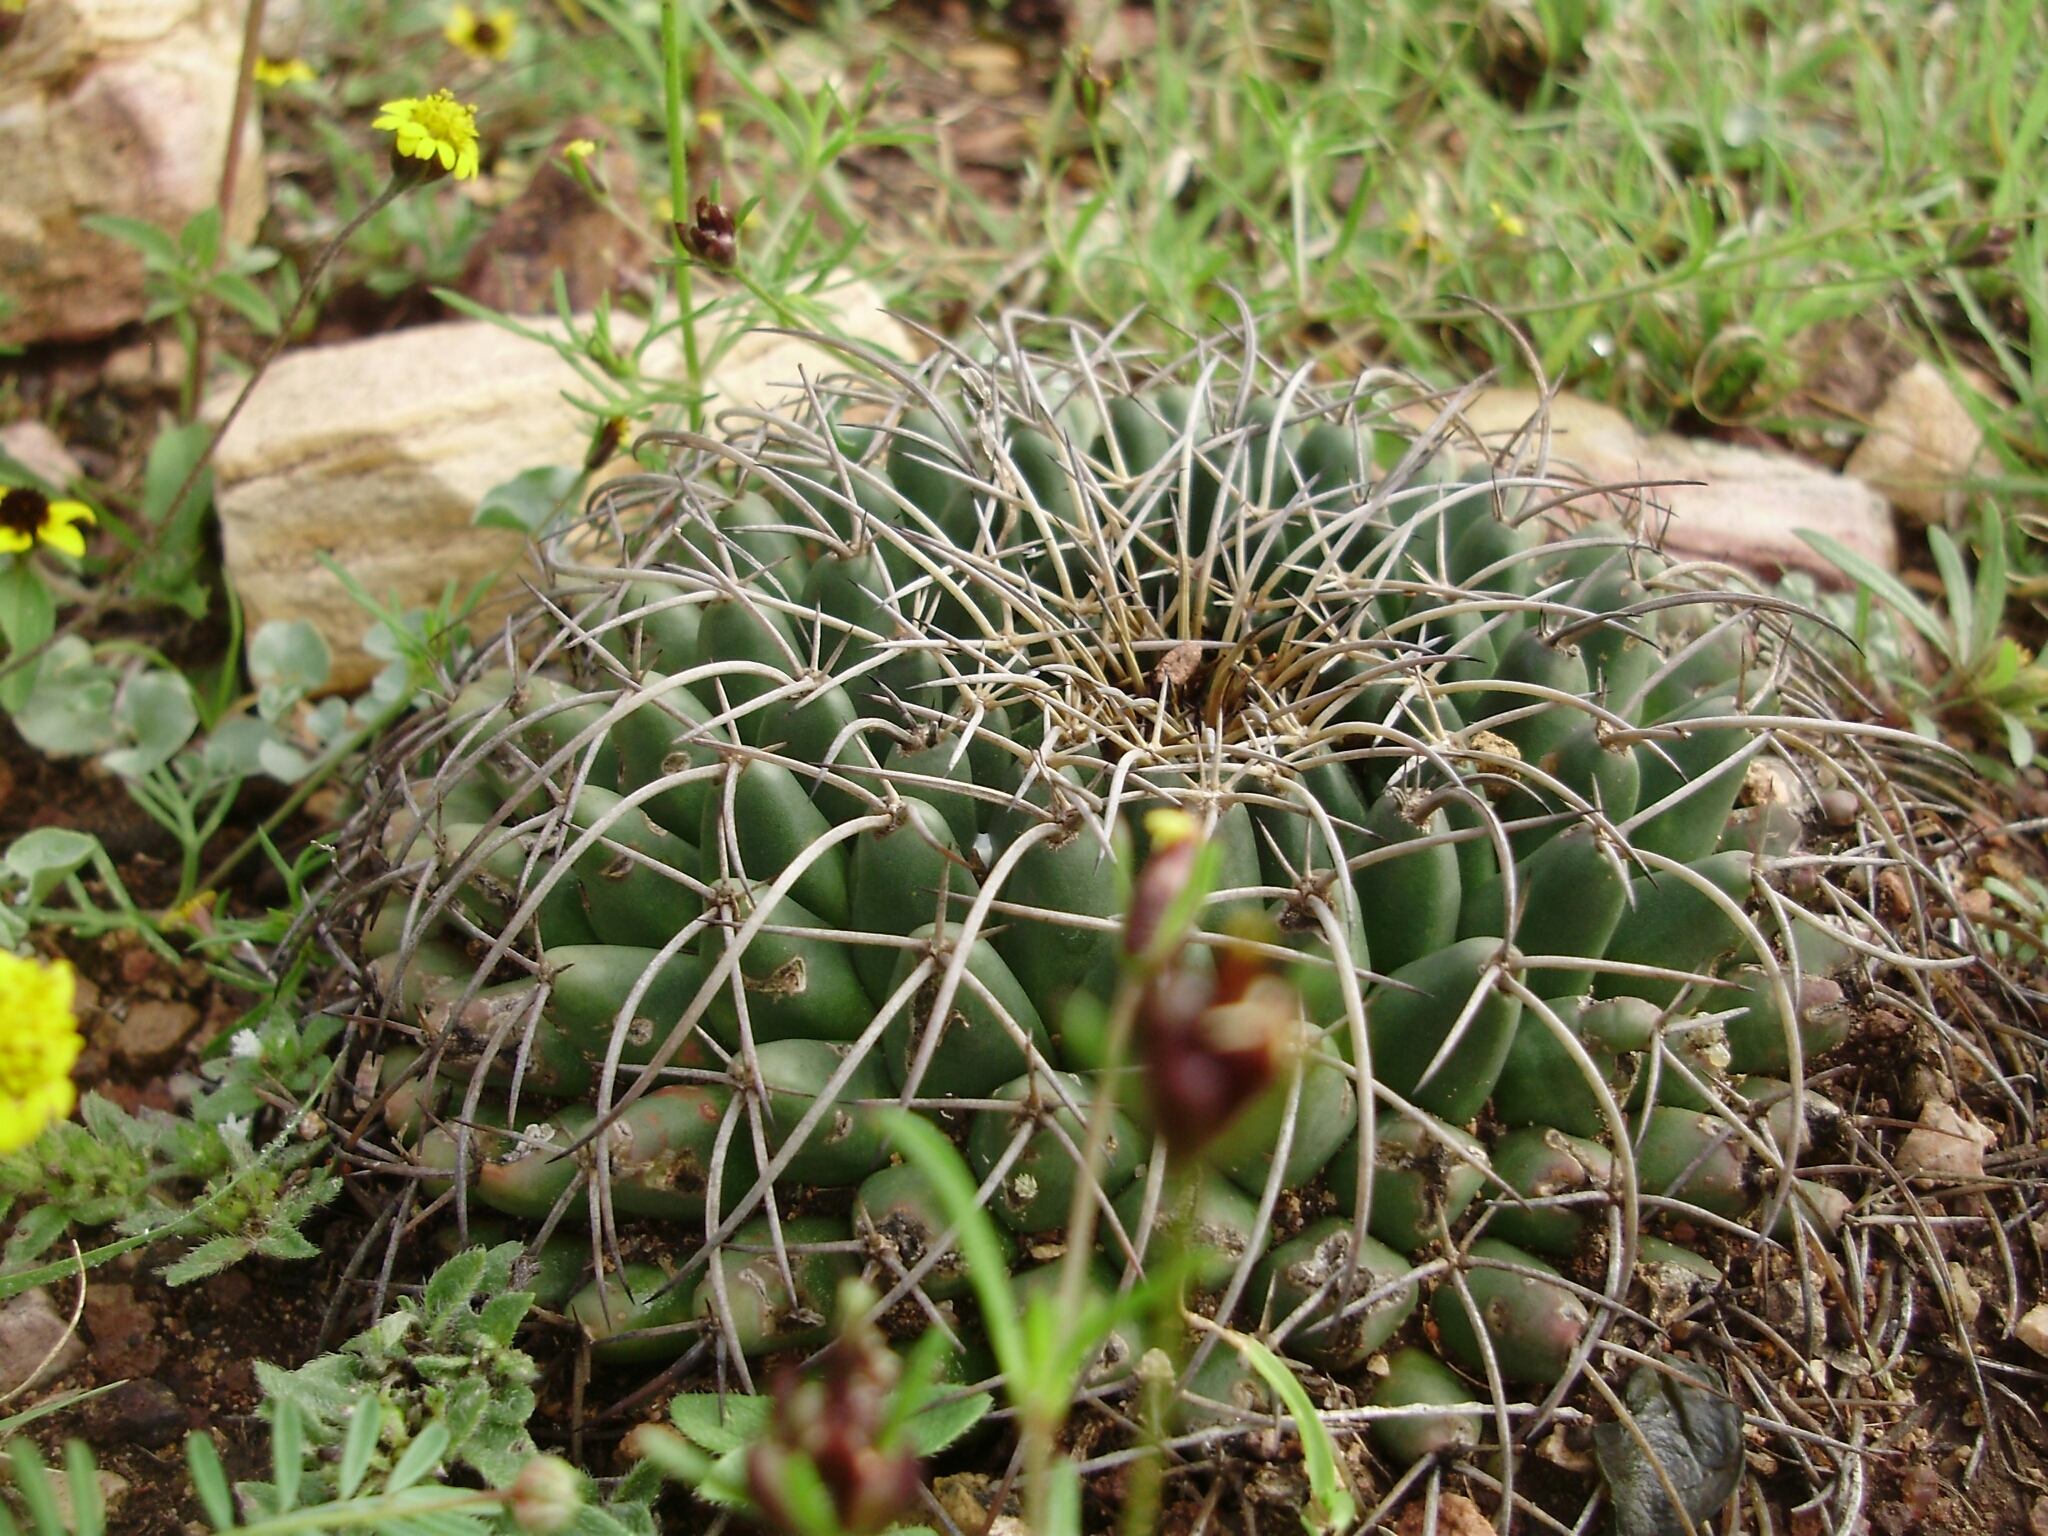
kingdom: Plantae
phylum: Tracheophyta
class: Magnoliopsida
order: Caryophyllales
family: Cactaceae
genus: Mammillaria
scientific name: Mammillaria magnimamma
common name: Mexican pincushion
